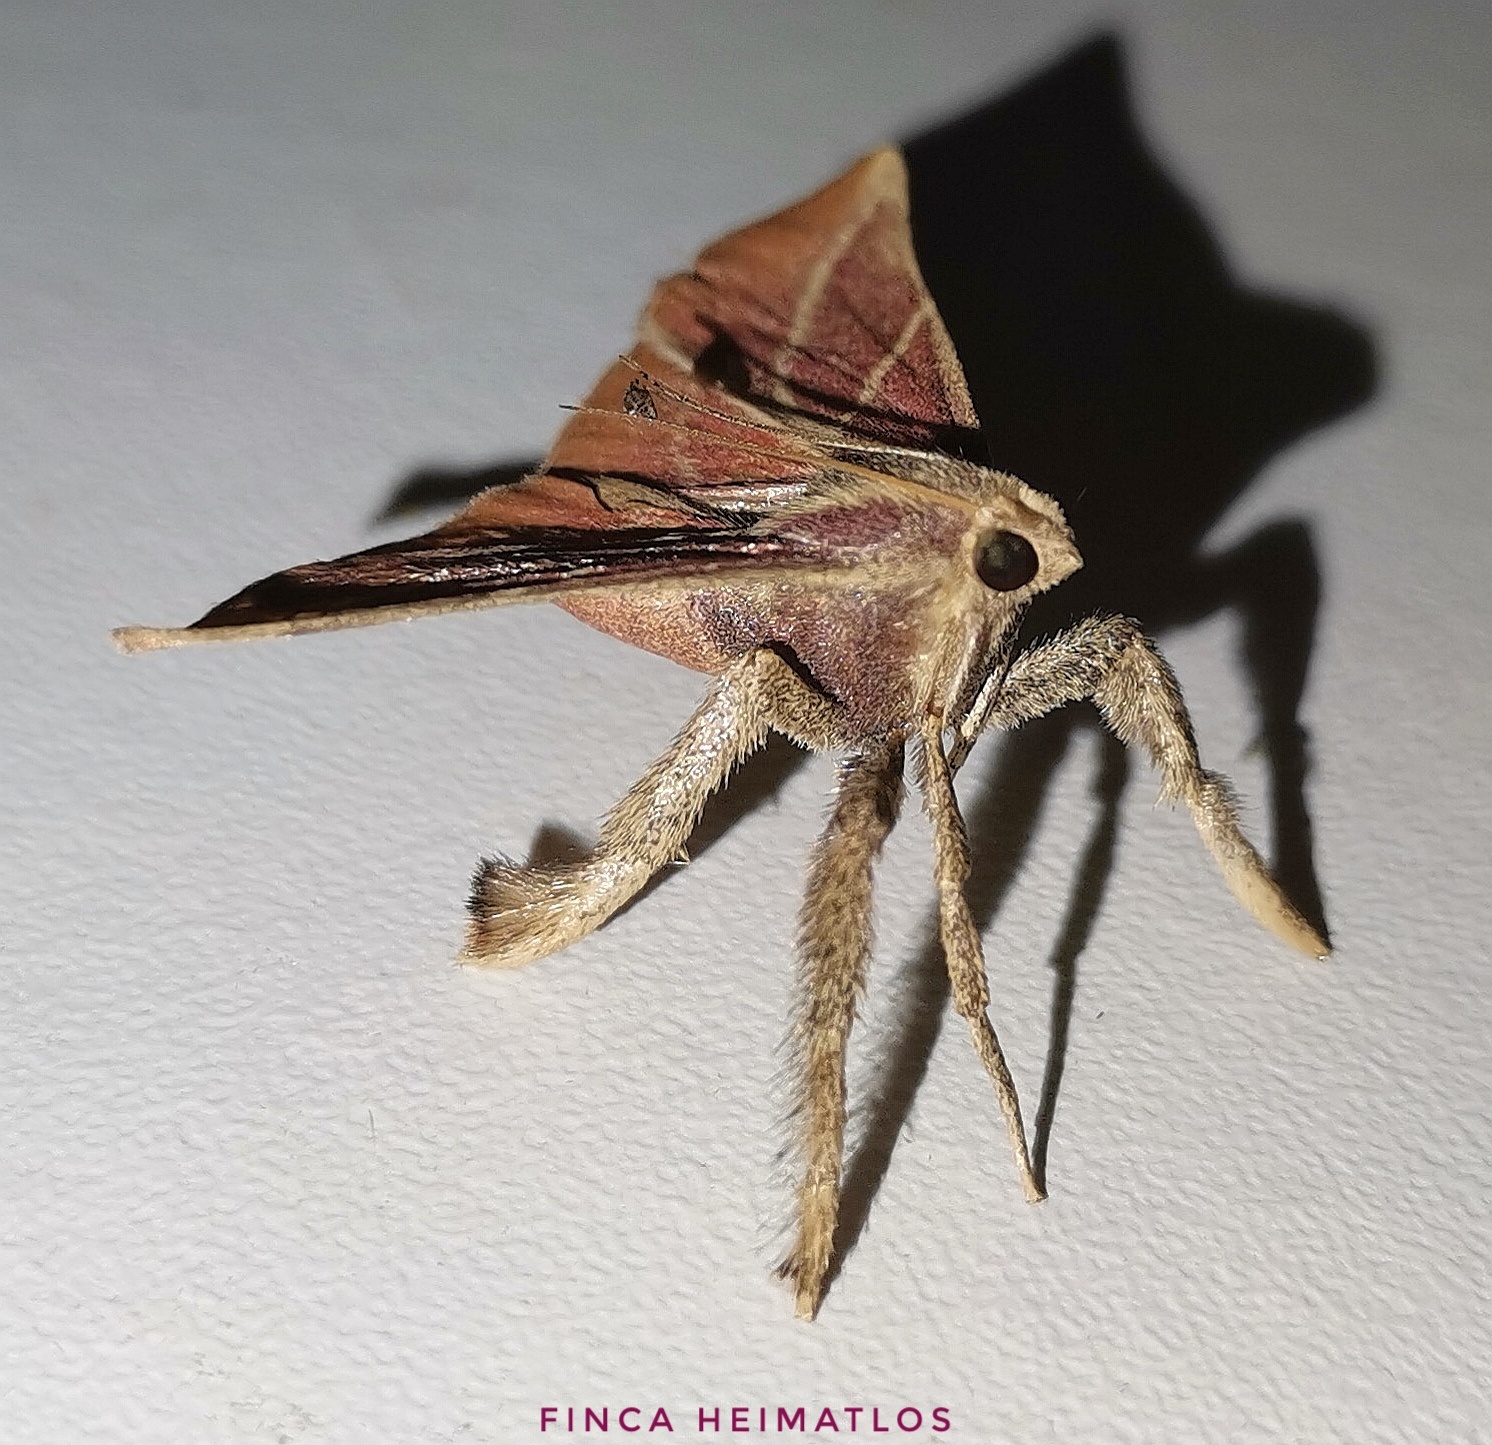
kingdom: Animalia
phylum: Arthropoda
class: Insecta
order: Lepidoptera
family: Pyralidae
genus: Pachypodistes
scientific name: Pachypodistes goeldii
